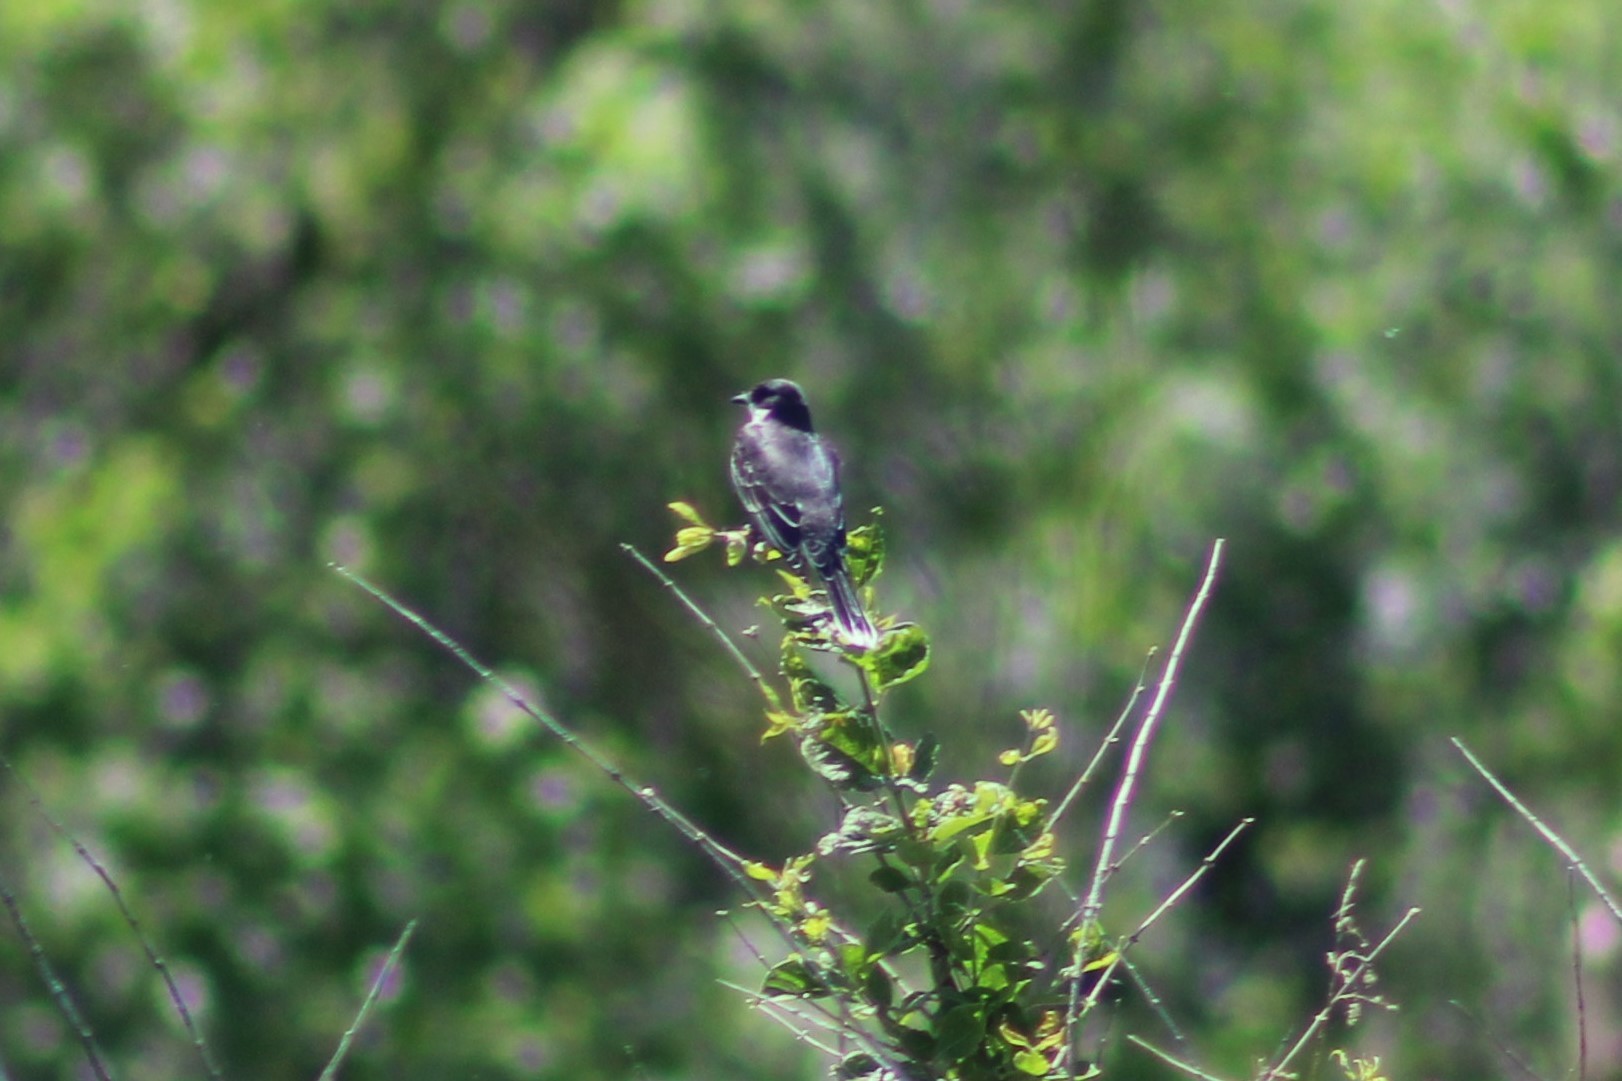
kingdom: Animalia
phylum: Chordata
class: Aves
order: Passeriformes
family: Tyrannidae
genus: Tyrannus
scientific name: Tyrannus tyrannus
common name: Eastern kingbird
